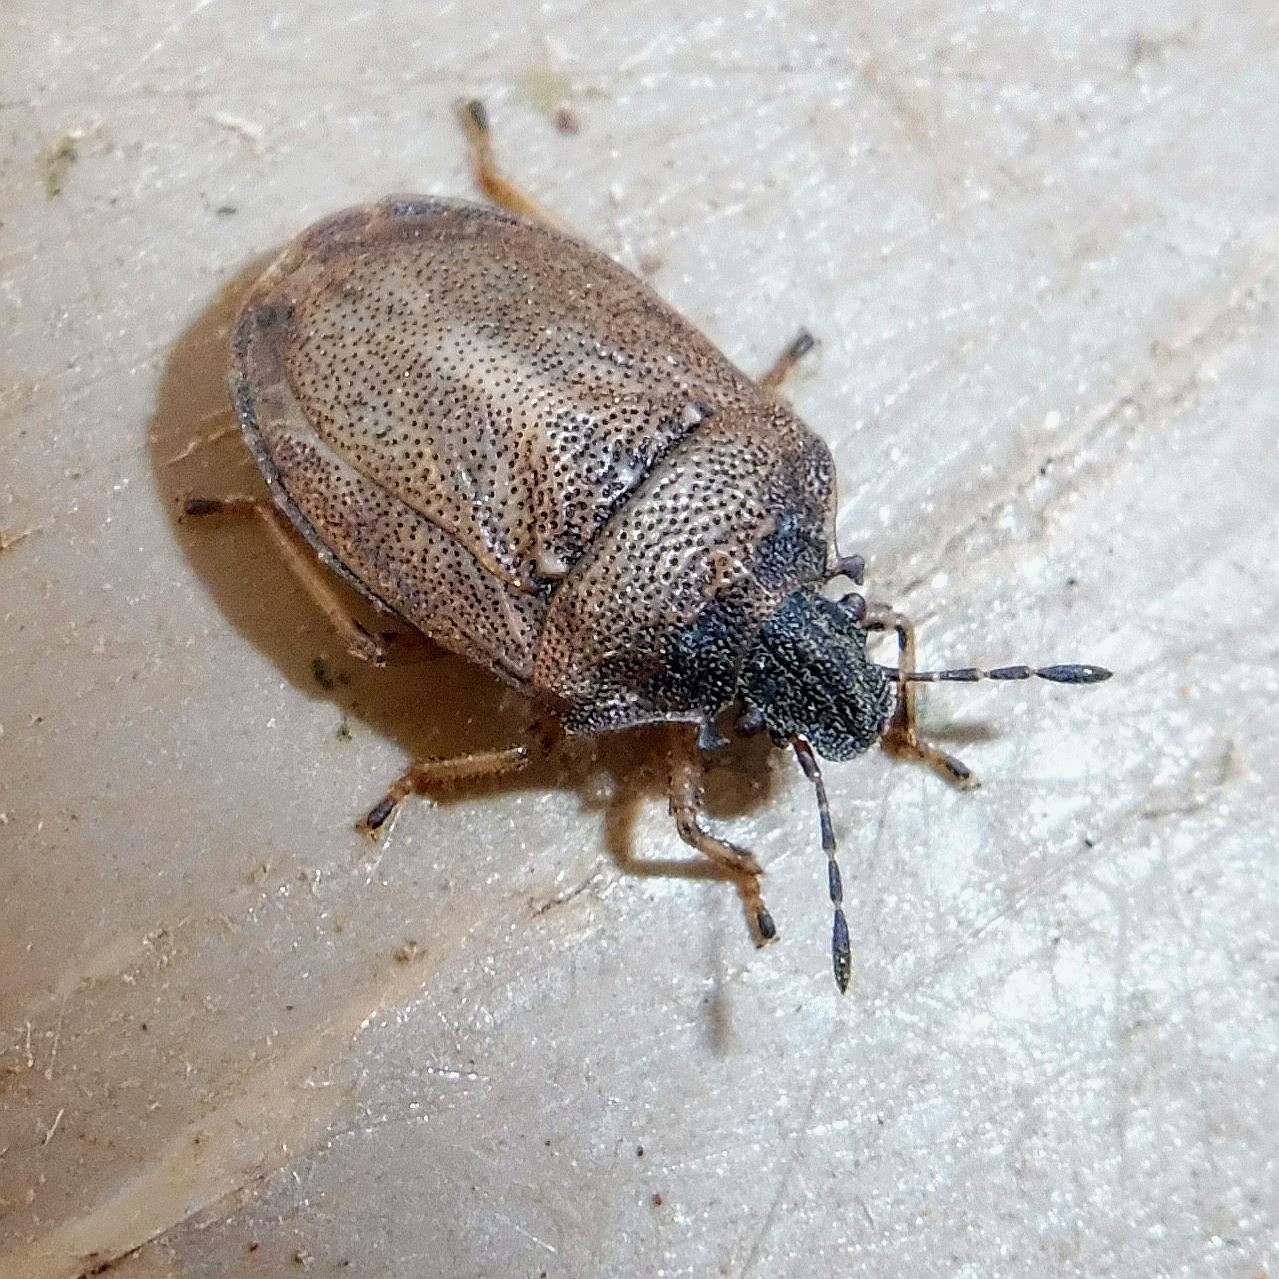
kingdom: Animalia
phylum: Arthropoda
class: Insecta
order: Hemiptera
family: Pentatomidae
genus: Podops
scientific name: Podops inunctus
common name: Turtle bug
